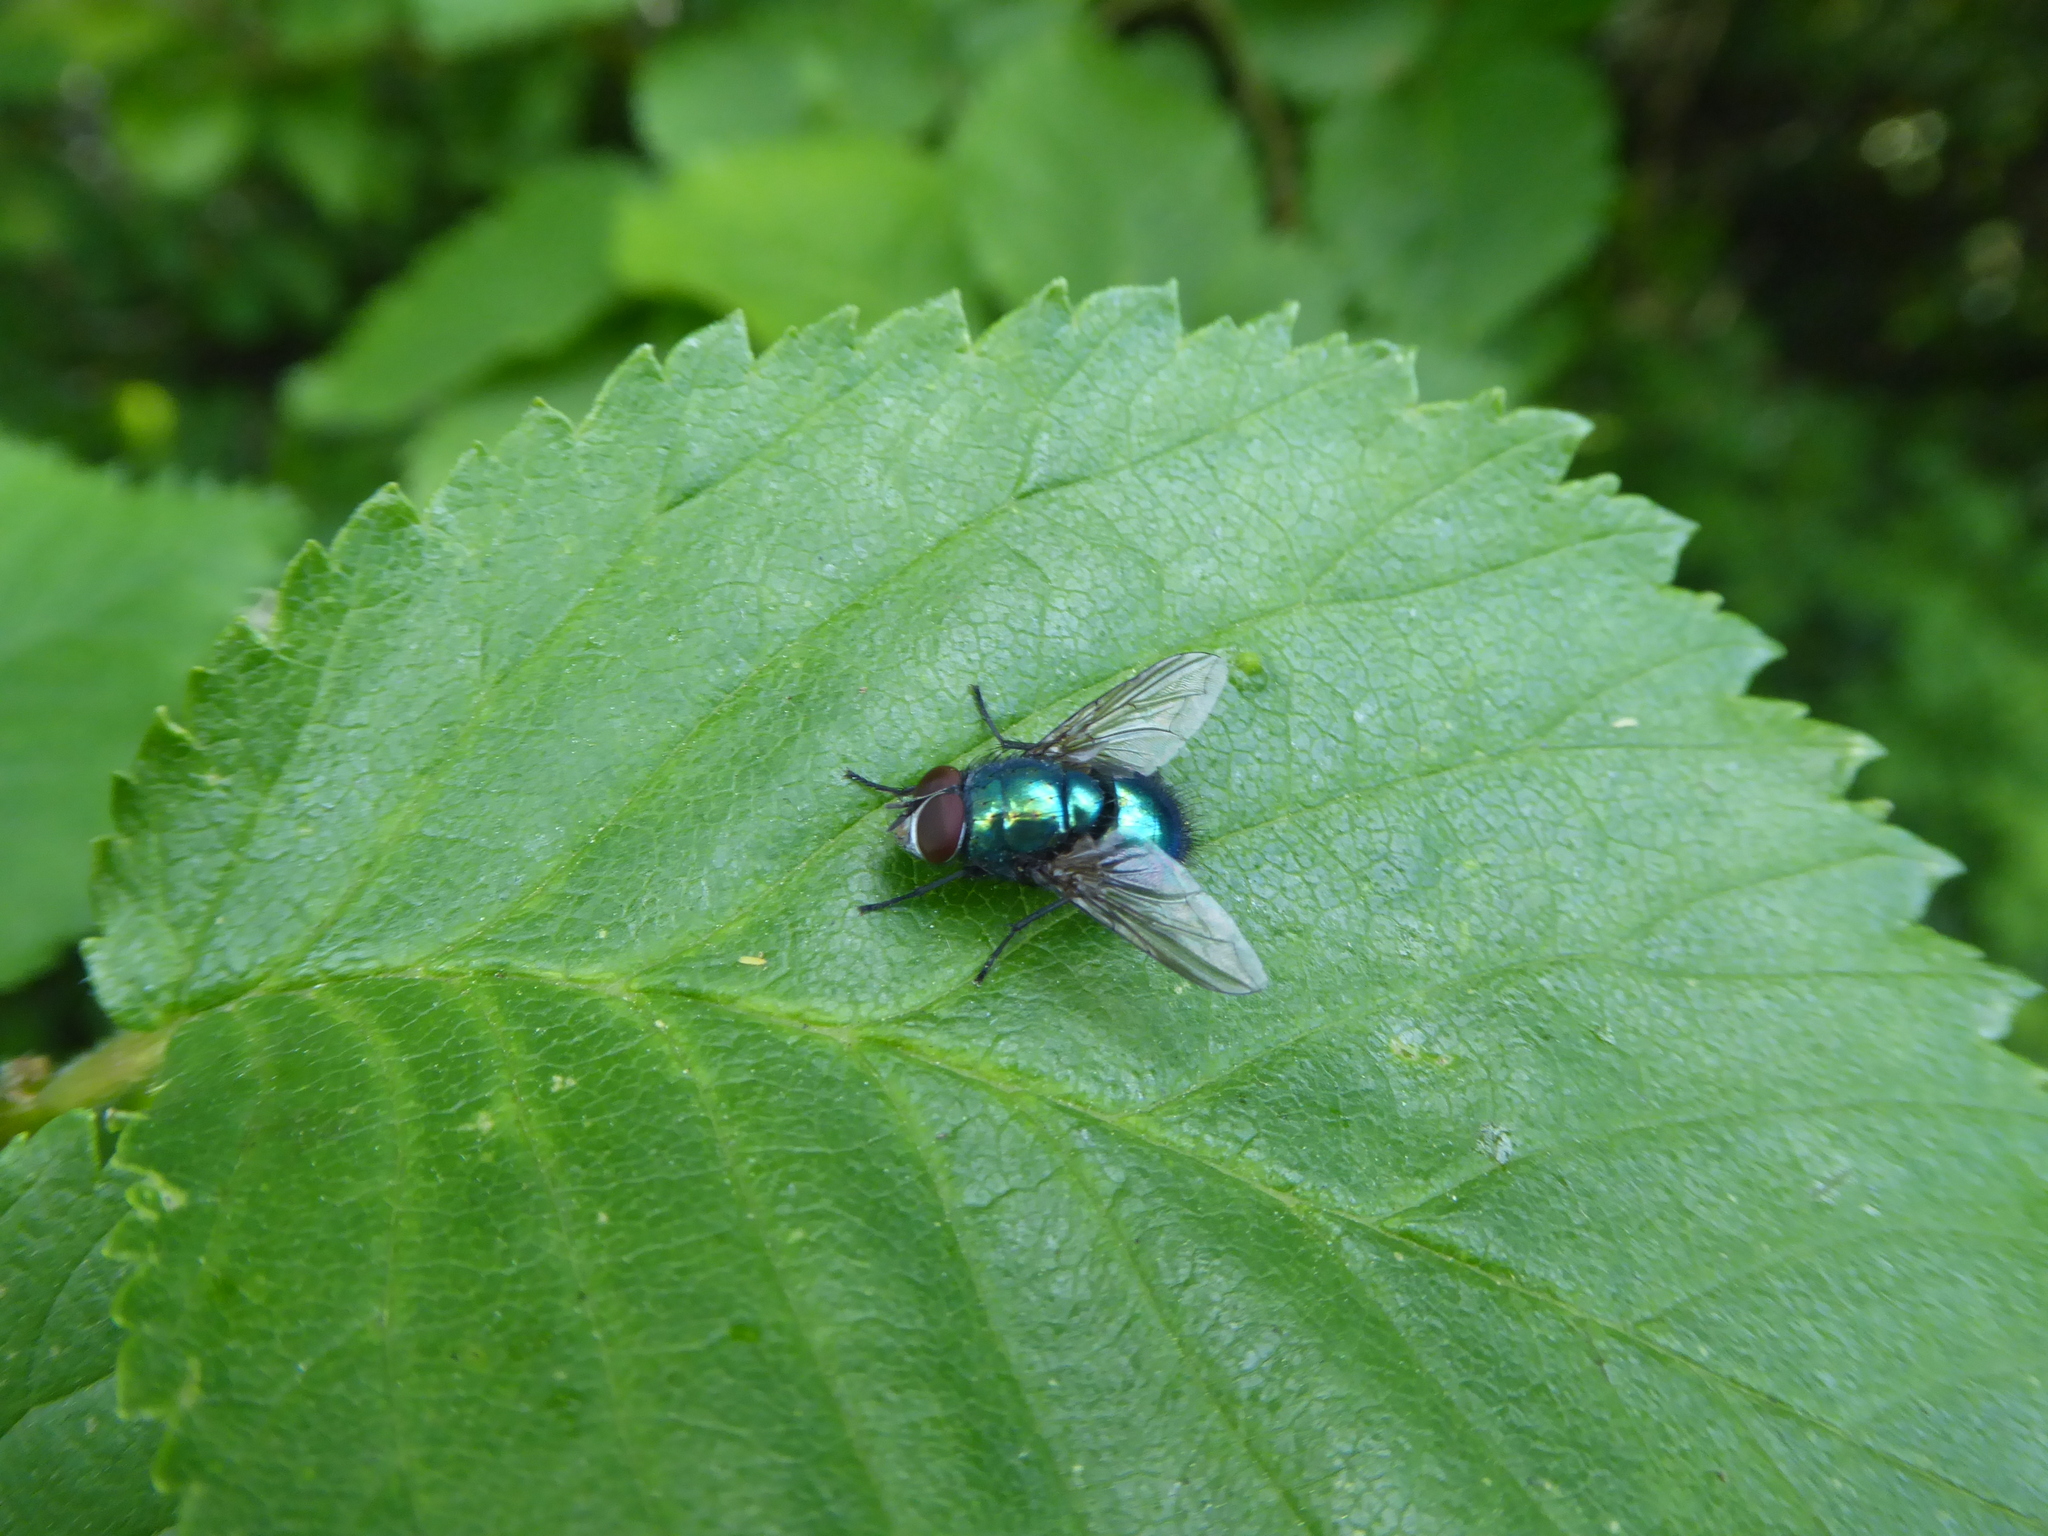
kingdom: Animalia
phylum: Arthropoda
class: Insecta
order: Diptera
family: Calliphoridae
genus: Lucilia
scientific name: Lucilia
